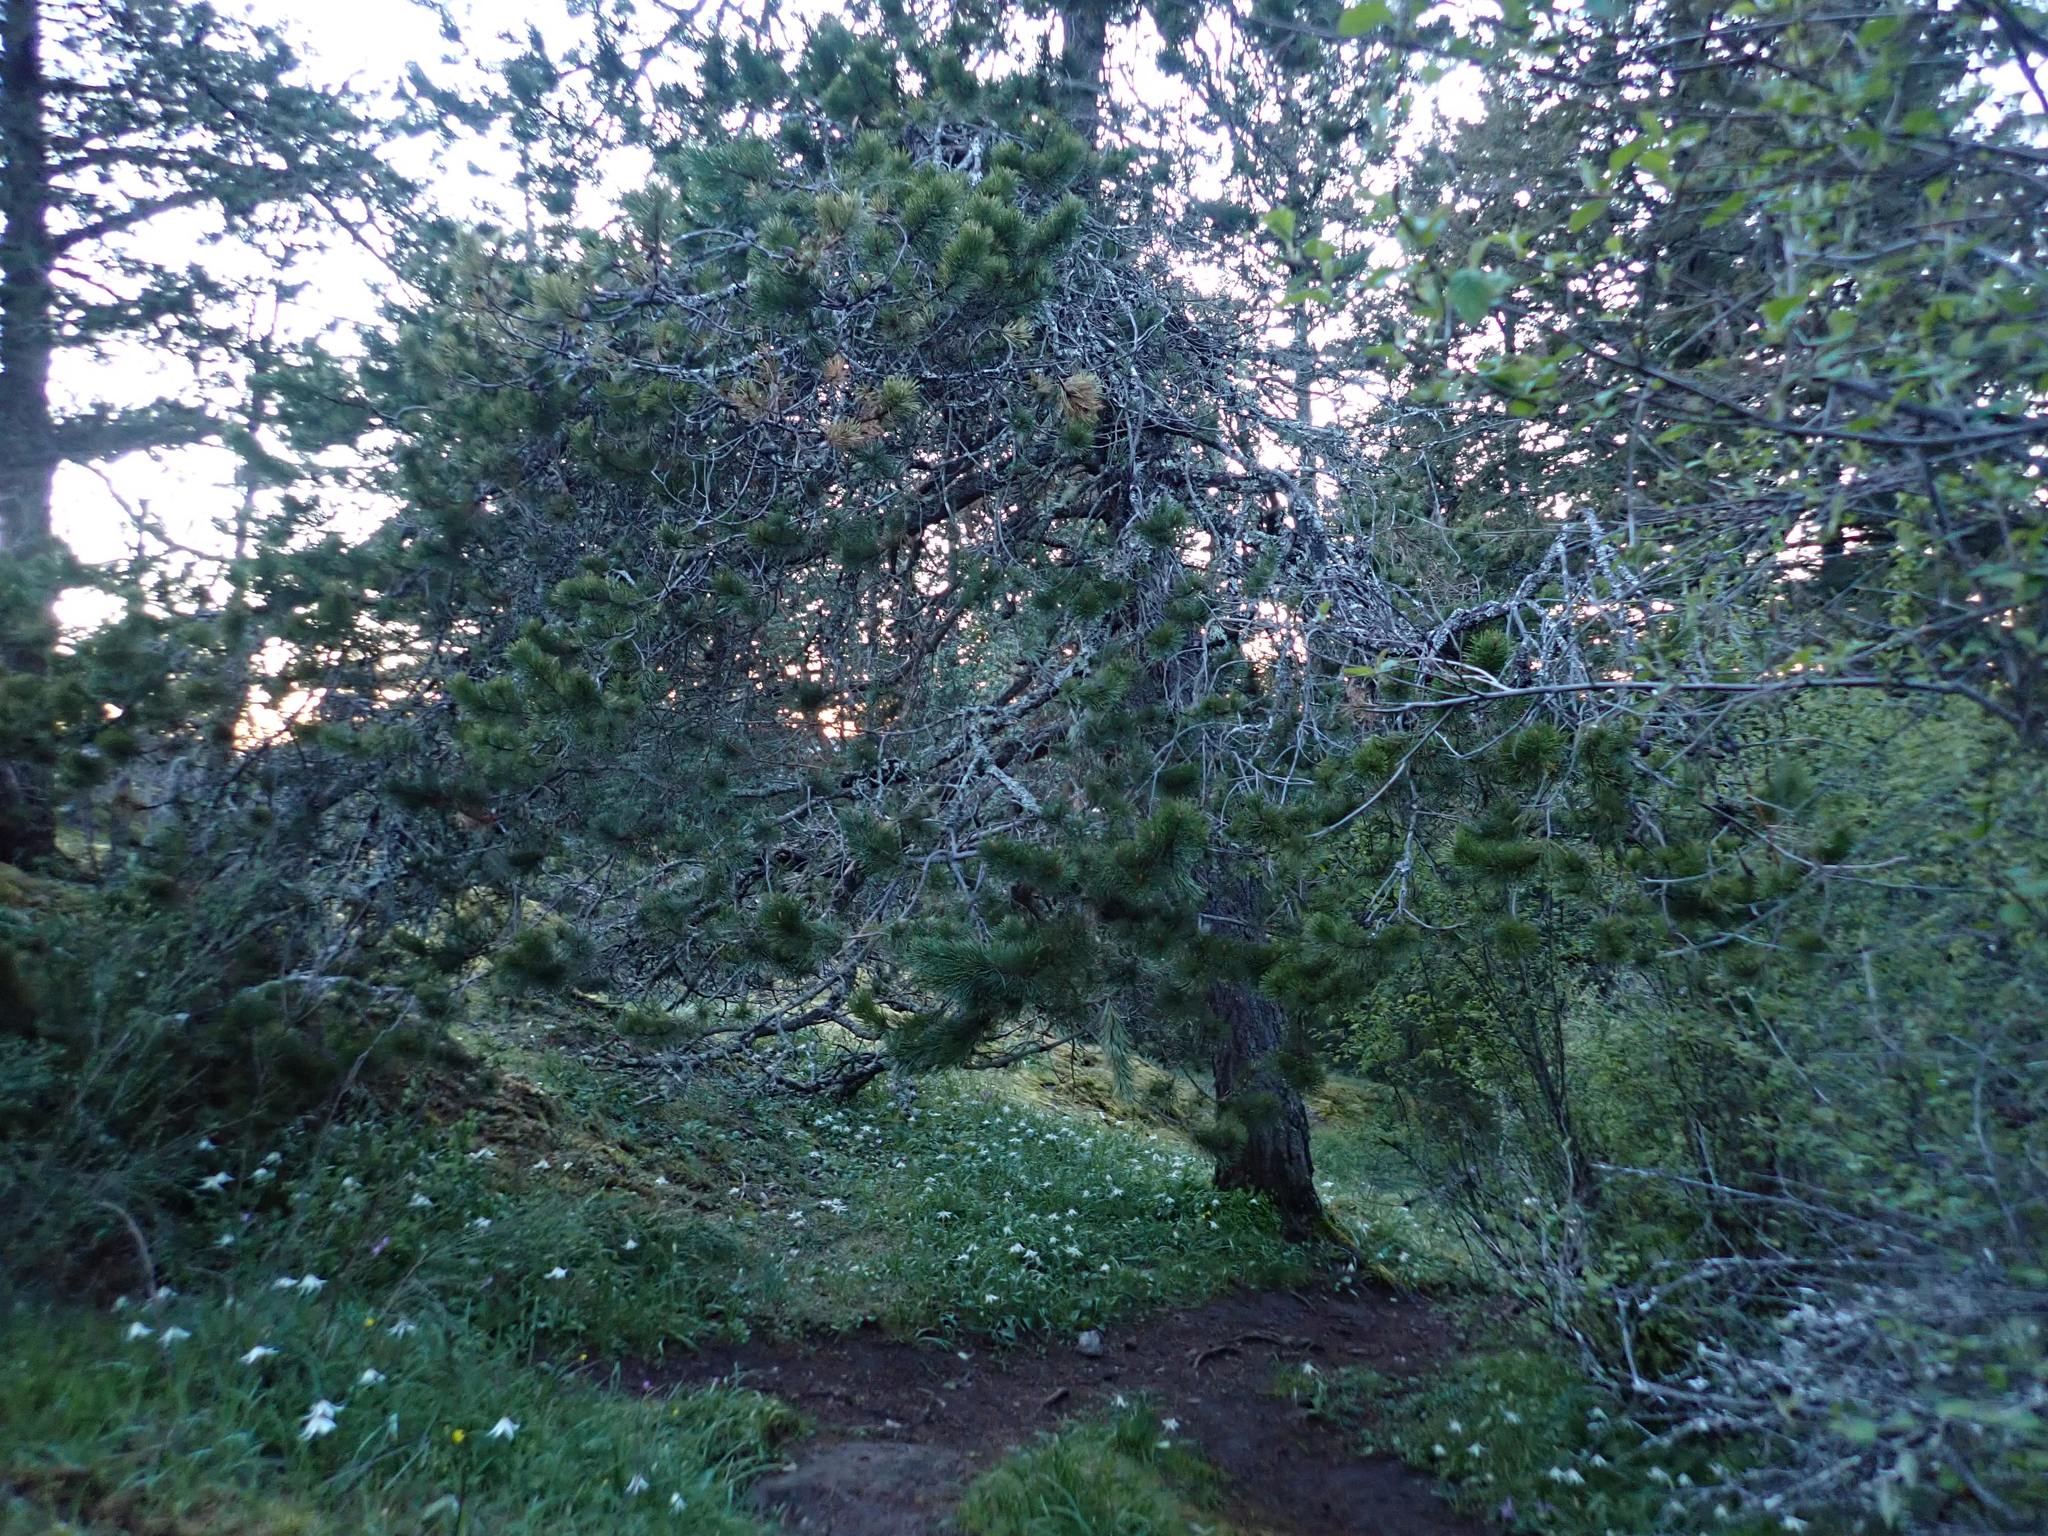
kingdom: Plantae
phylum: Tracheophyta
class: Pinopsida
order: Pinales
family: Pinaceae
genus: Pinus
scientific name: Pinus contorta
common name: Lodgepole pine
